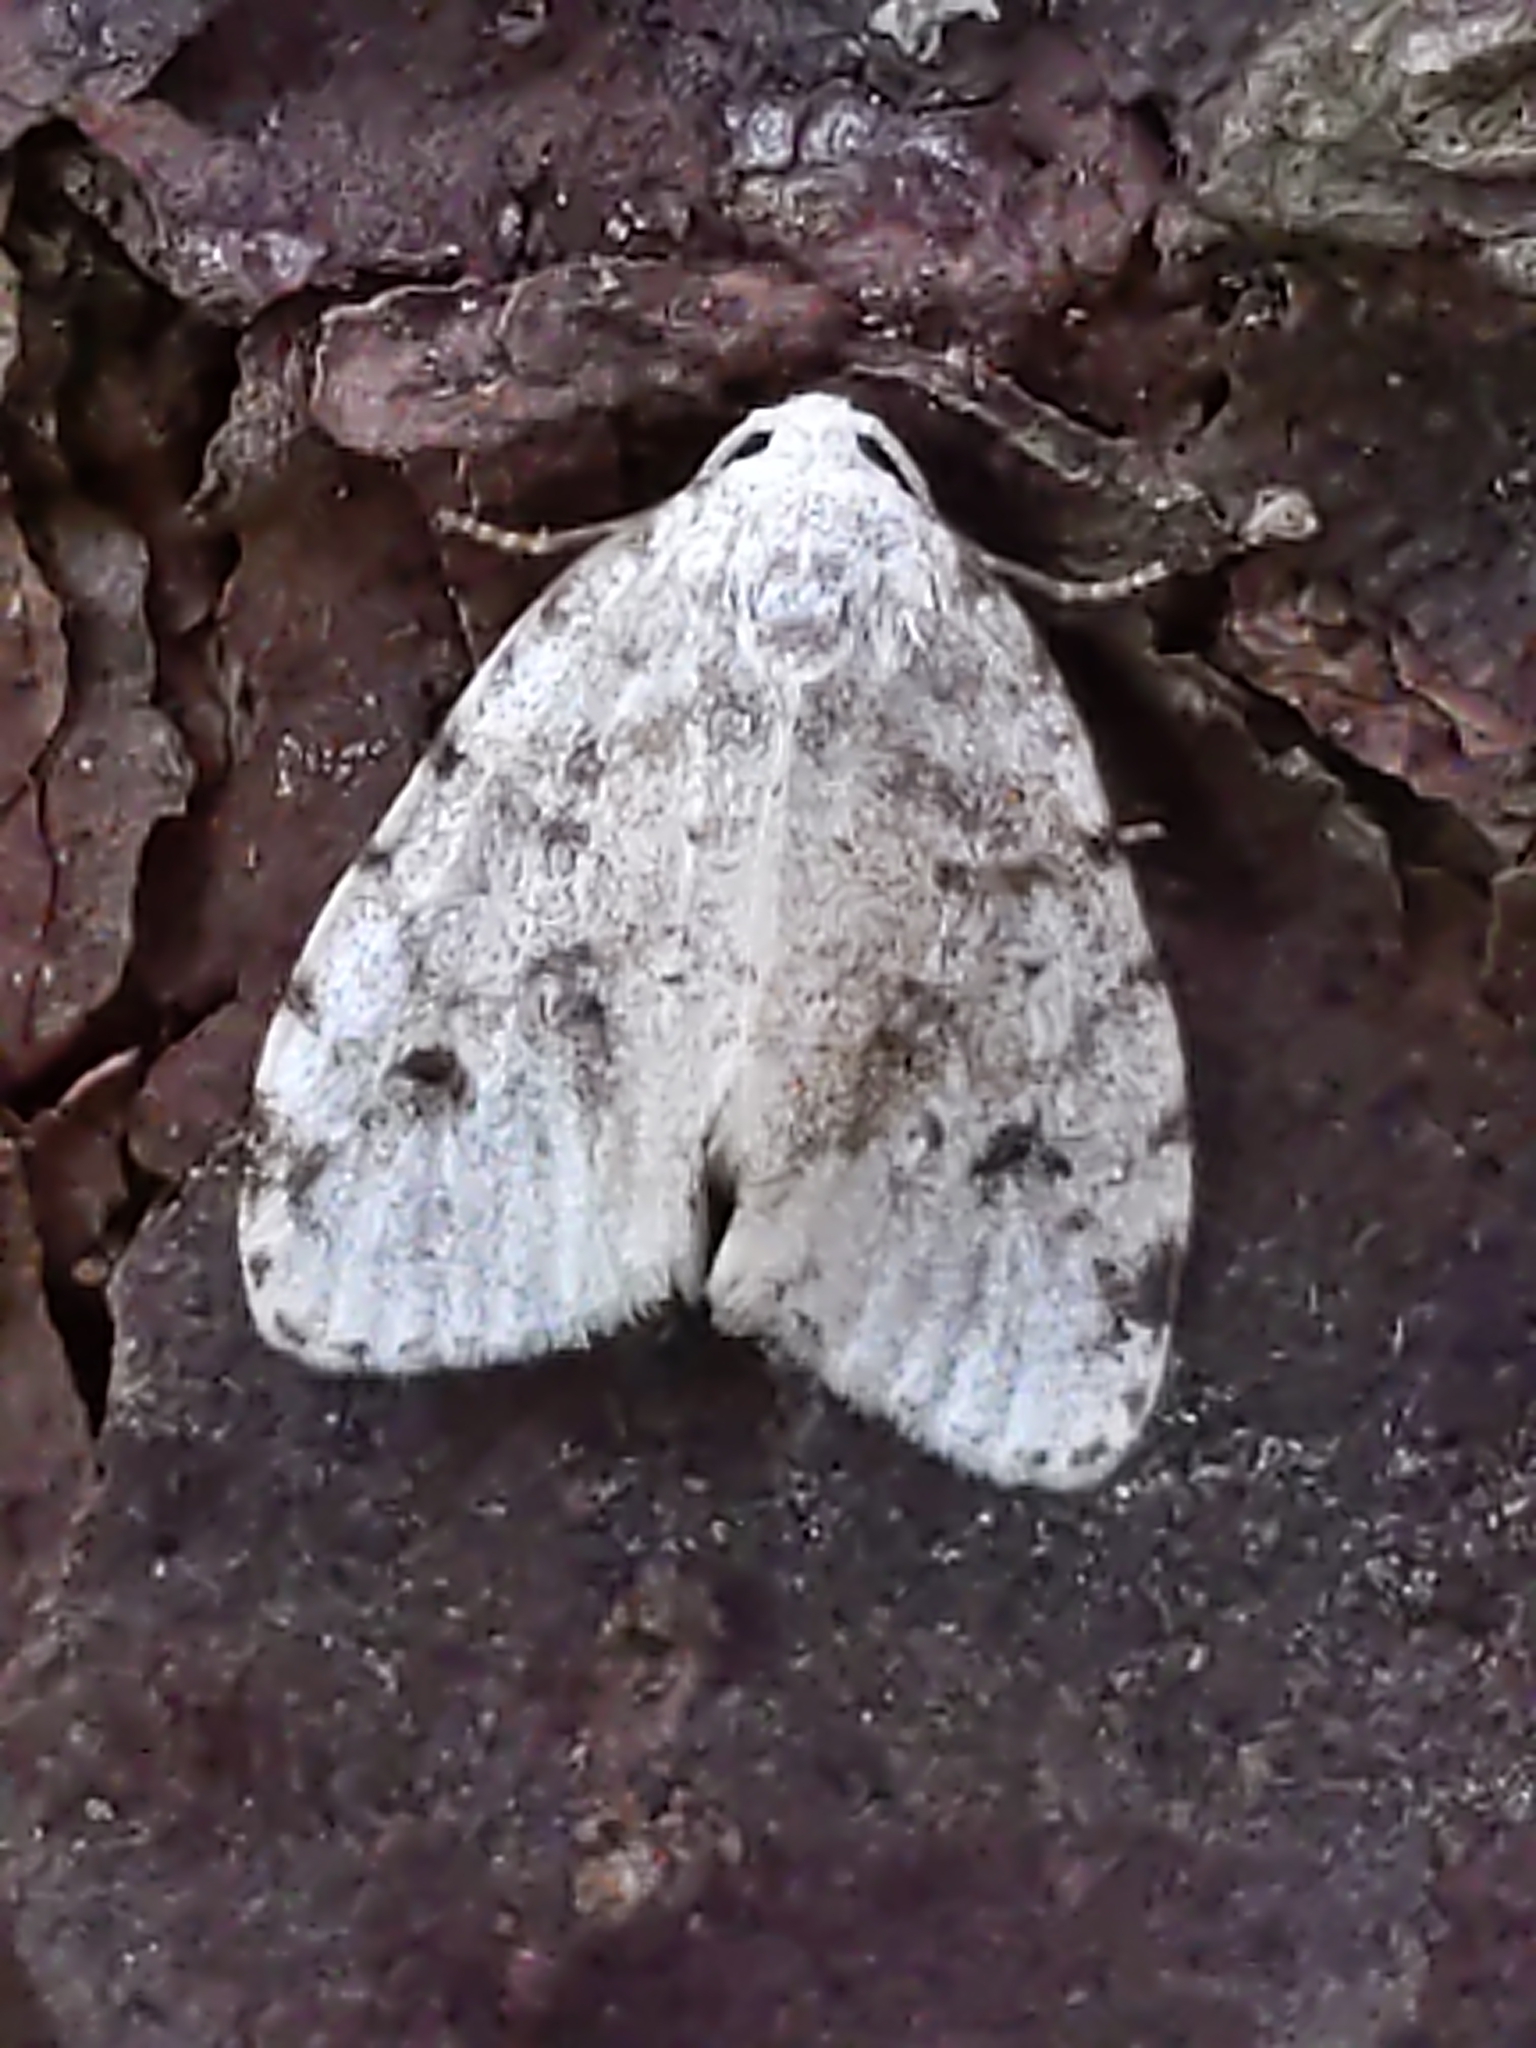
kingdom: Animalia
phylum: Arthropoda
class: Insecta
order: Lepidoptera
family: Erebidae
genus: Clemensia
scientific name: Clemensia albata
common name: Little white lichen moth
